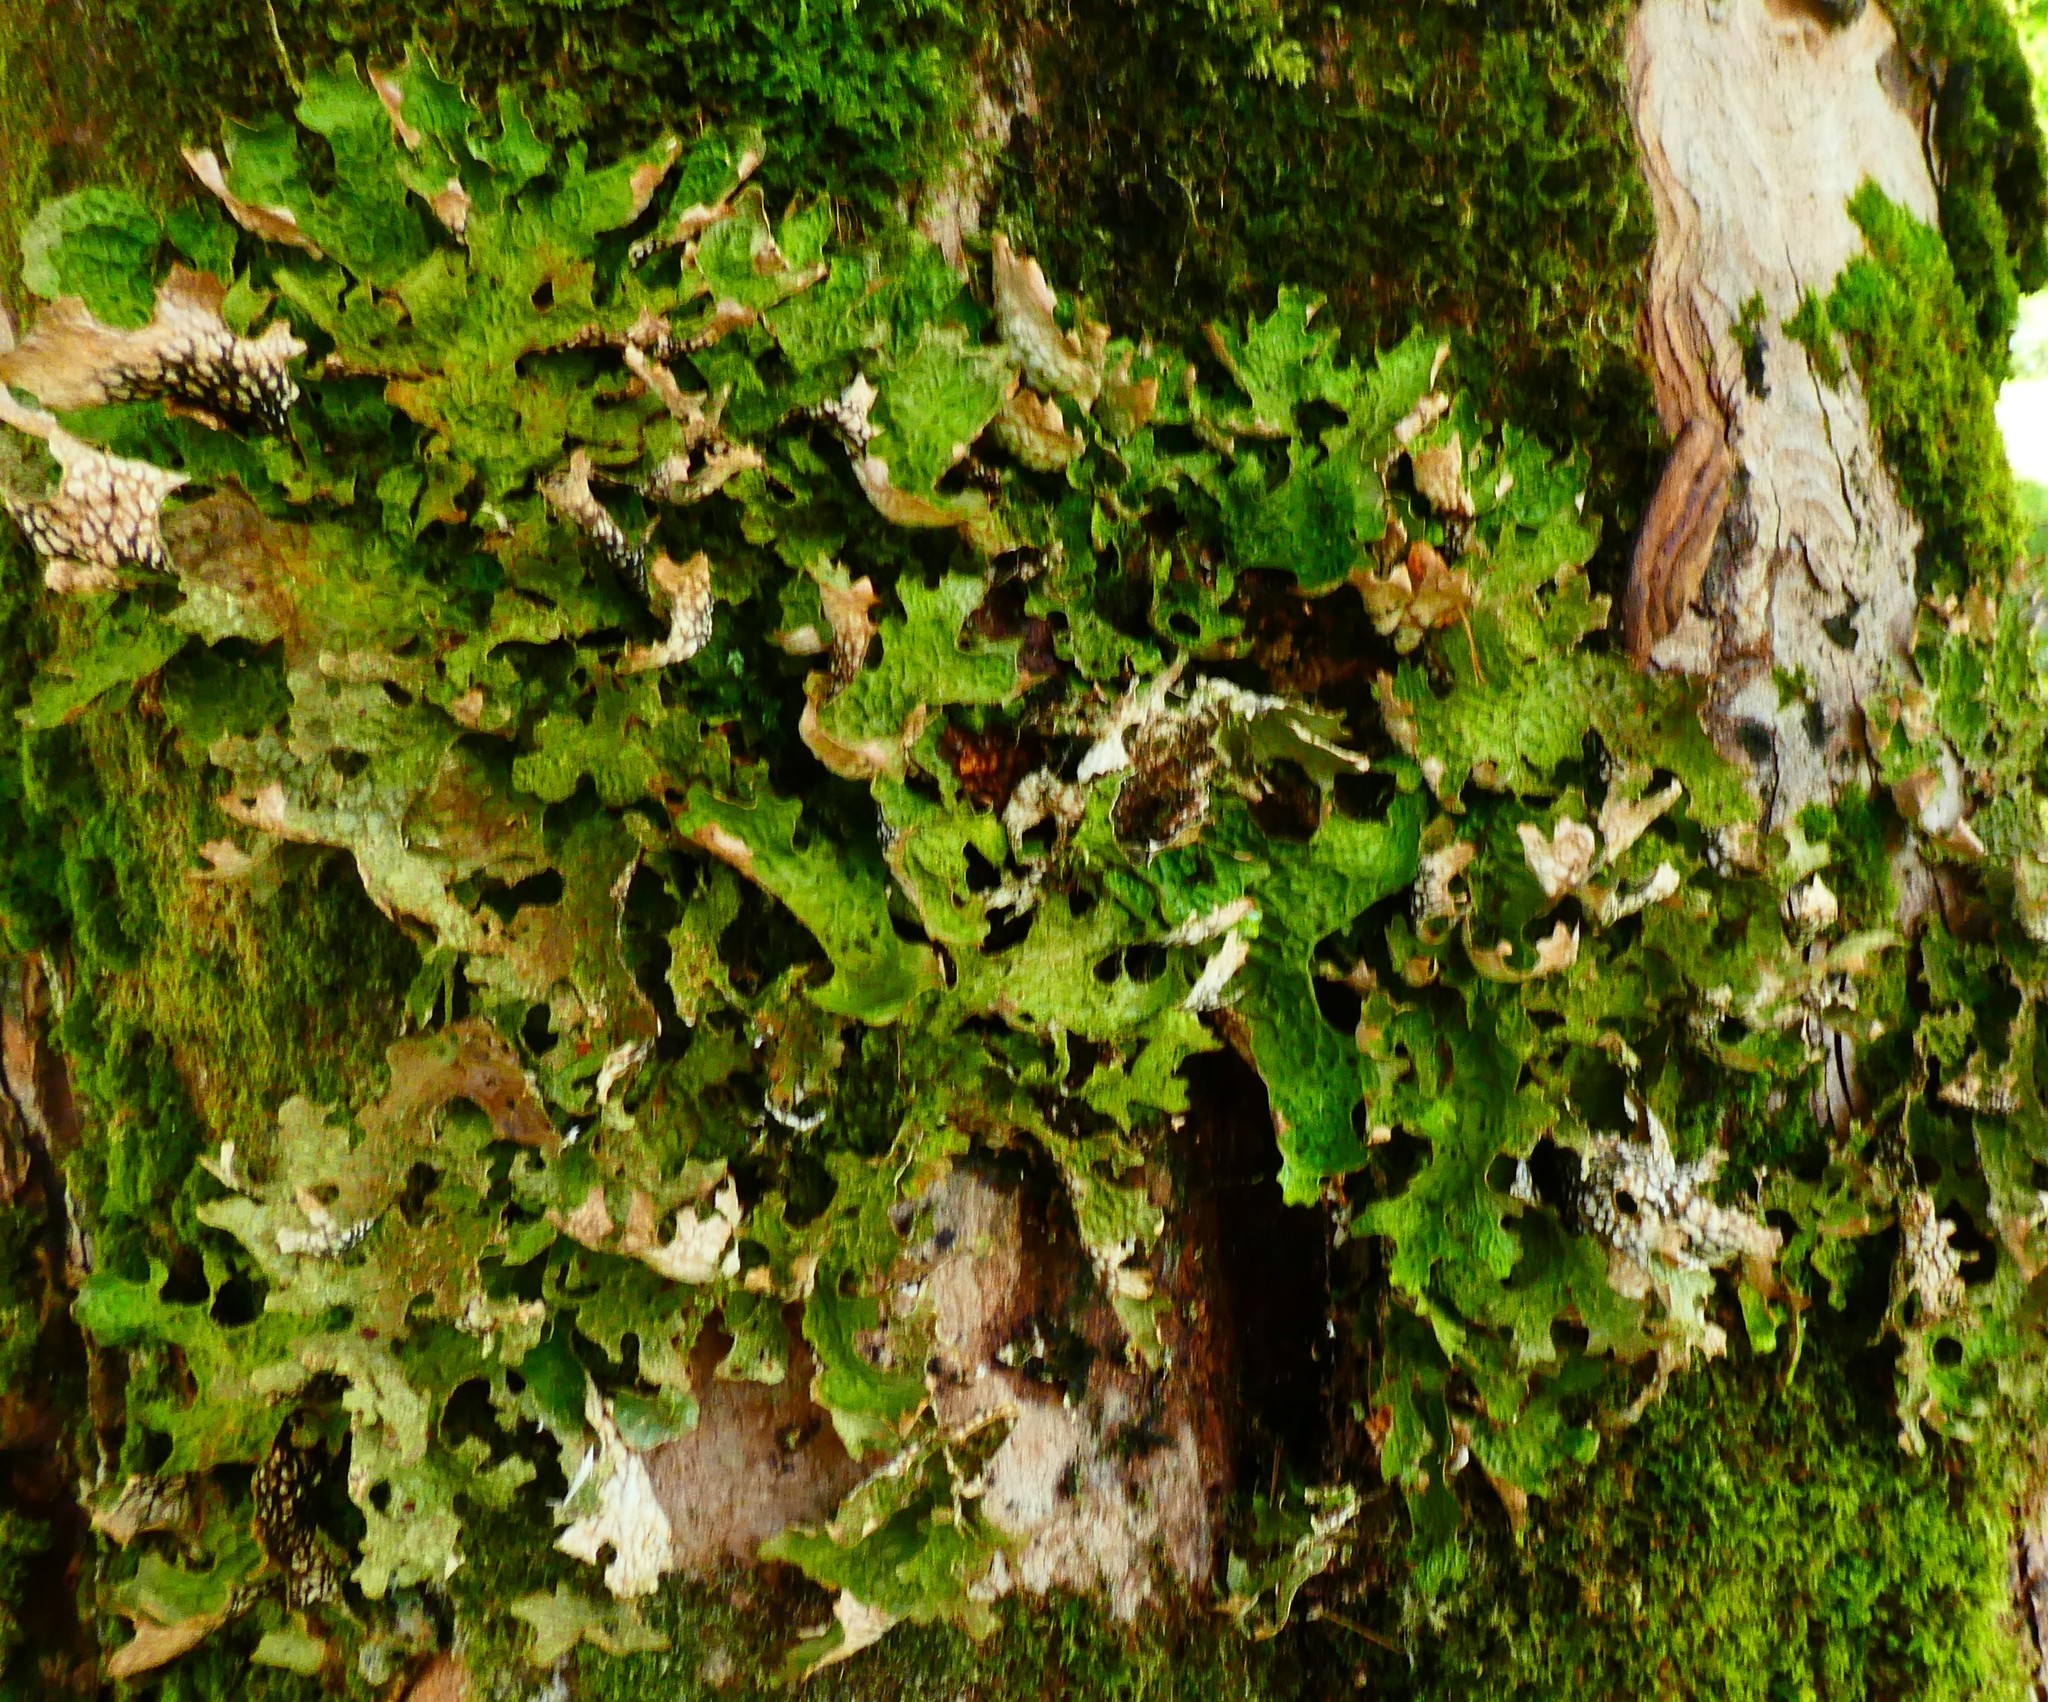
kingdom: Fungi
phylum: Ascomycota
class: Lecanoromycetes
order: Peltigerales
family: Lobariaceae
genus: Lobaria
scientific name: Lobaria pulmonaria
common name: Lungwort
